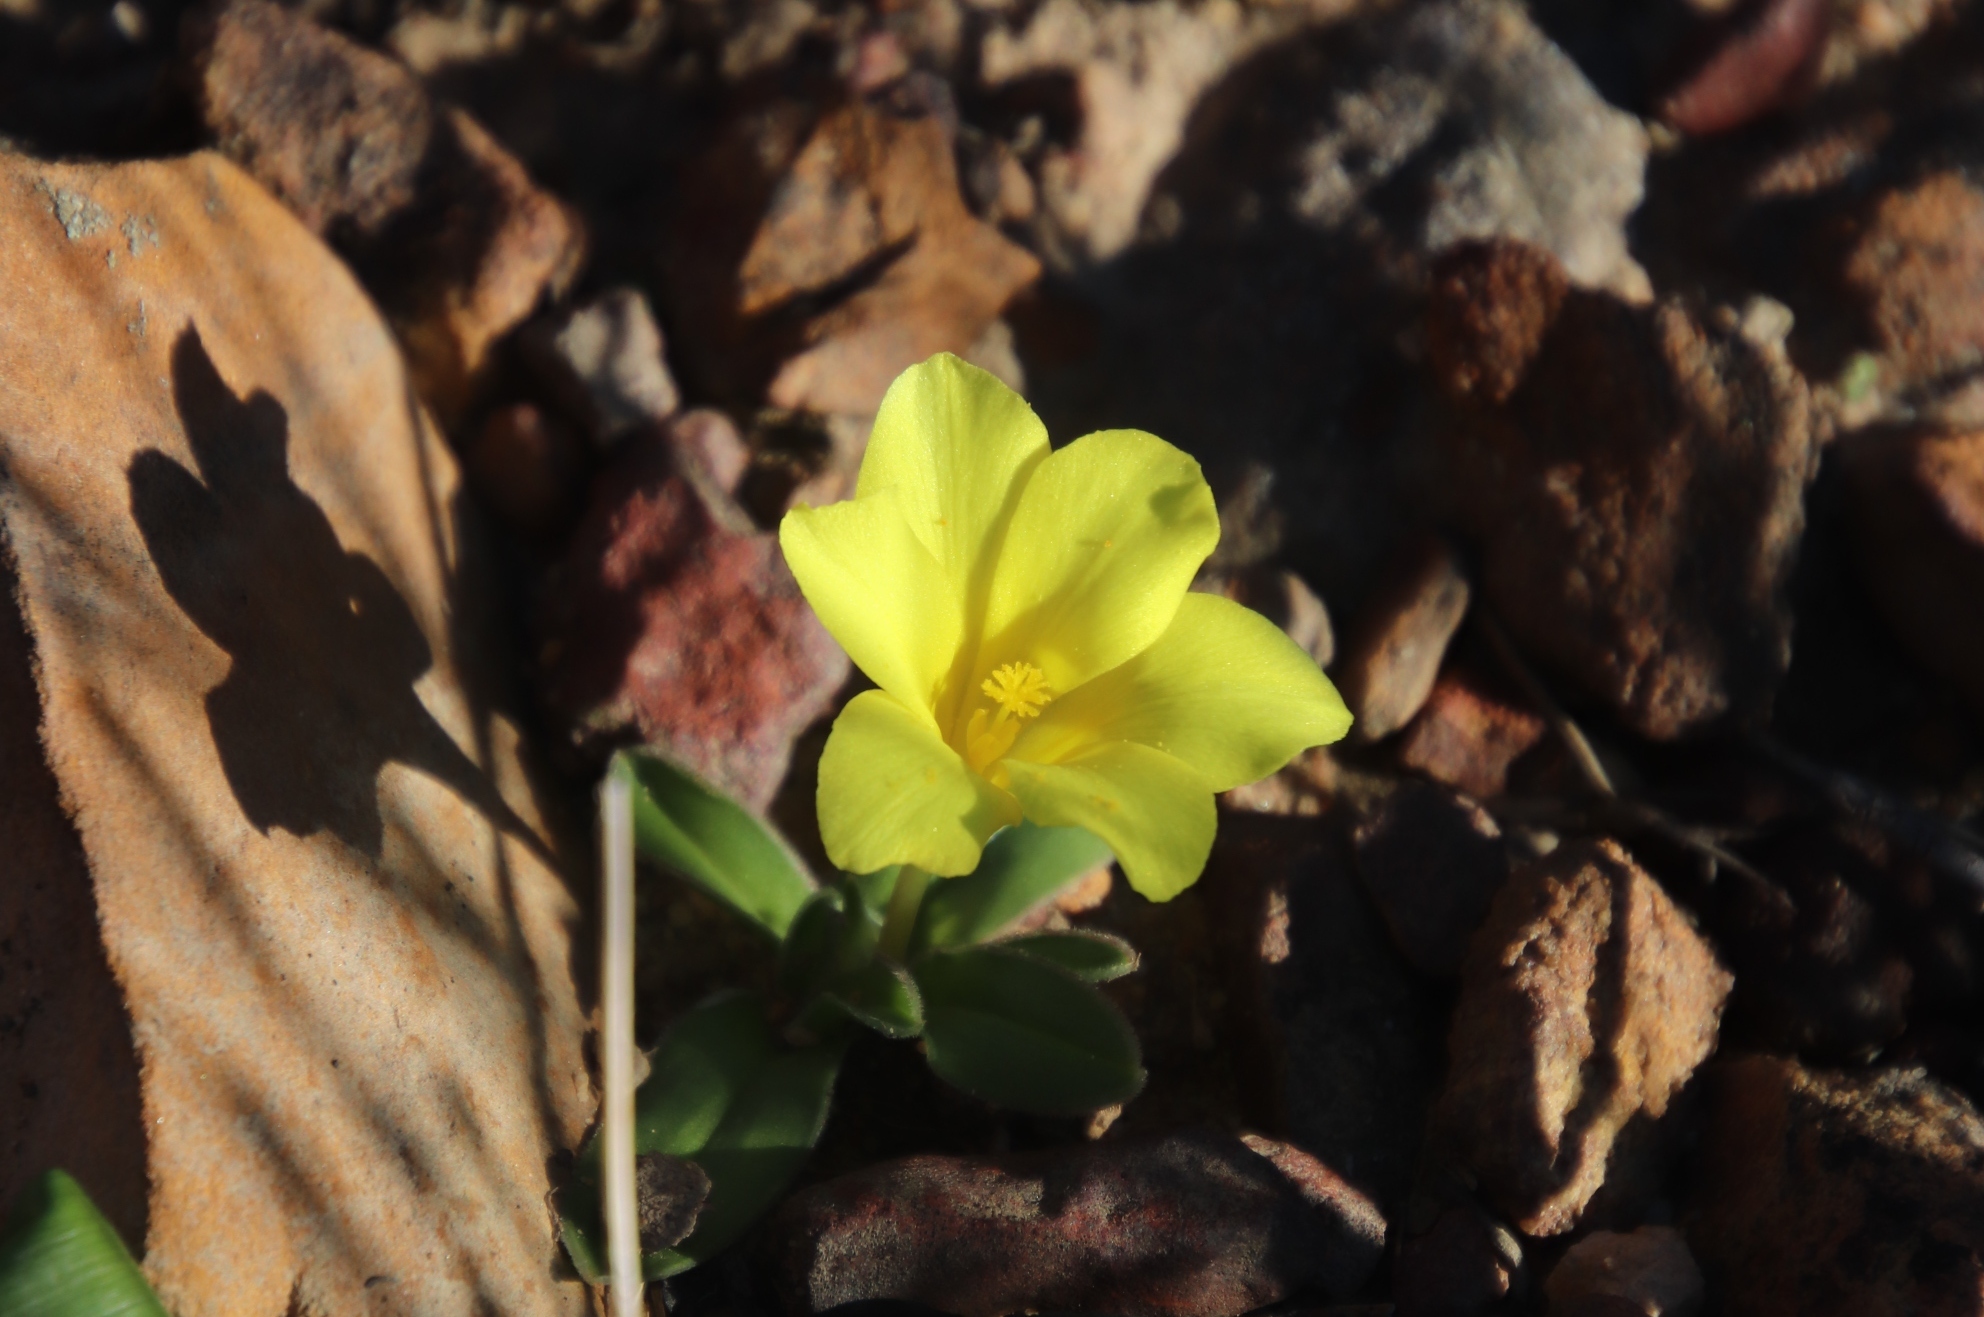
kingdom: Plantae
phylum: Tracheophyta
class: Liliopsida
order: Asparagales
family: Iridaceae
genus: Moraea
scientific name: Moraea galaxia
